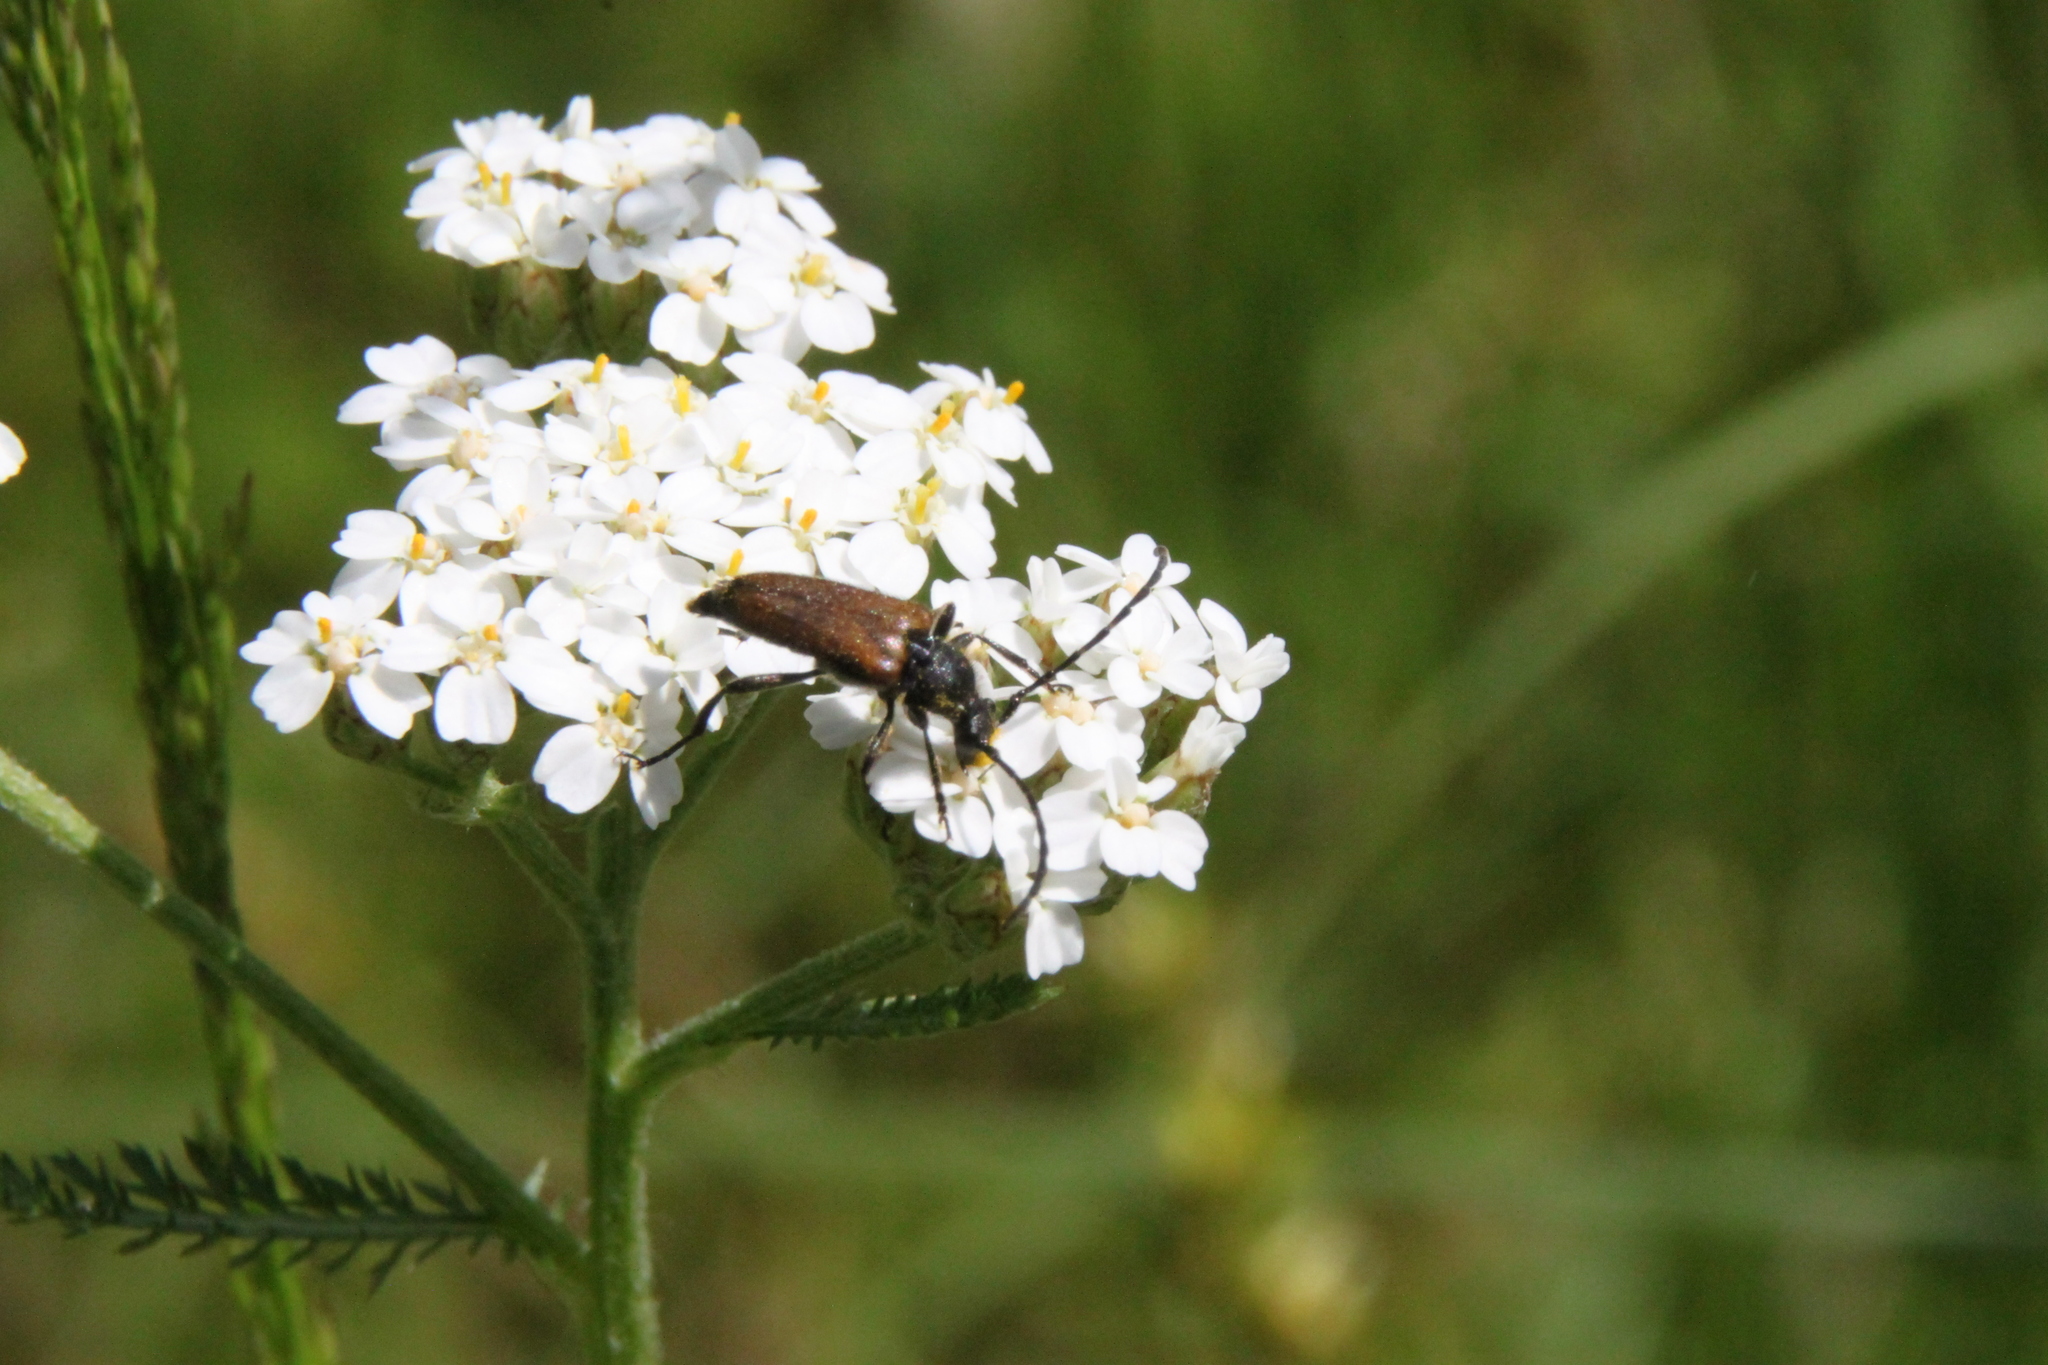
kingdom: Animalia
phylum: Arthropoda
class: Insecta
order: Coleoptera
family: Cerambycidae
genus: Paracorymbia
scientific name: Paracorymbia maculicornis
